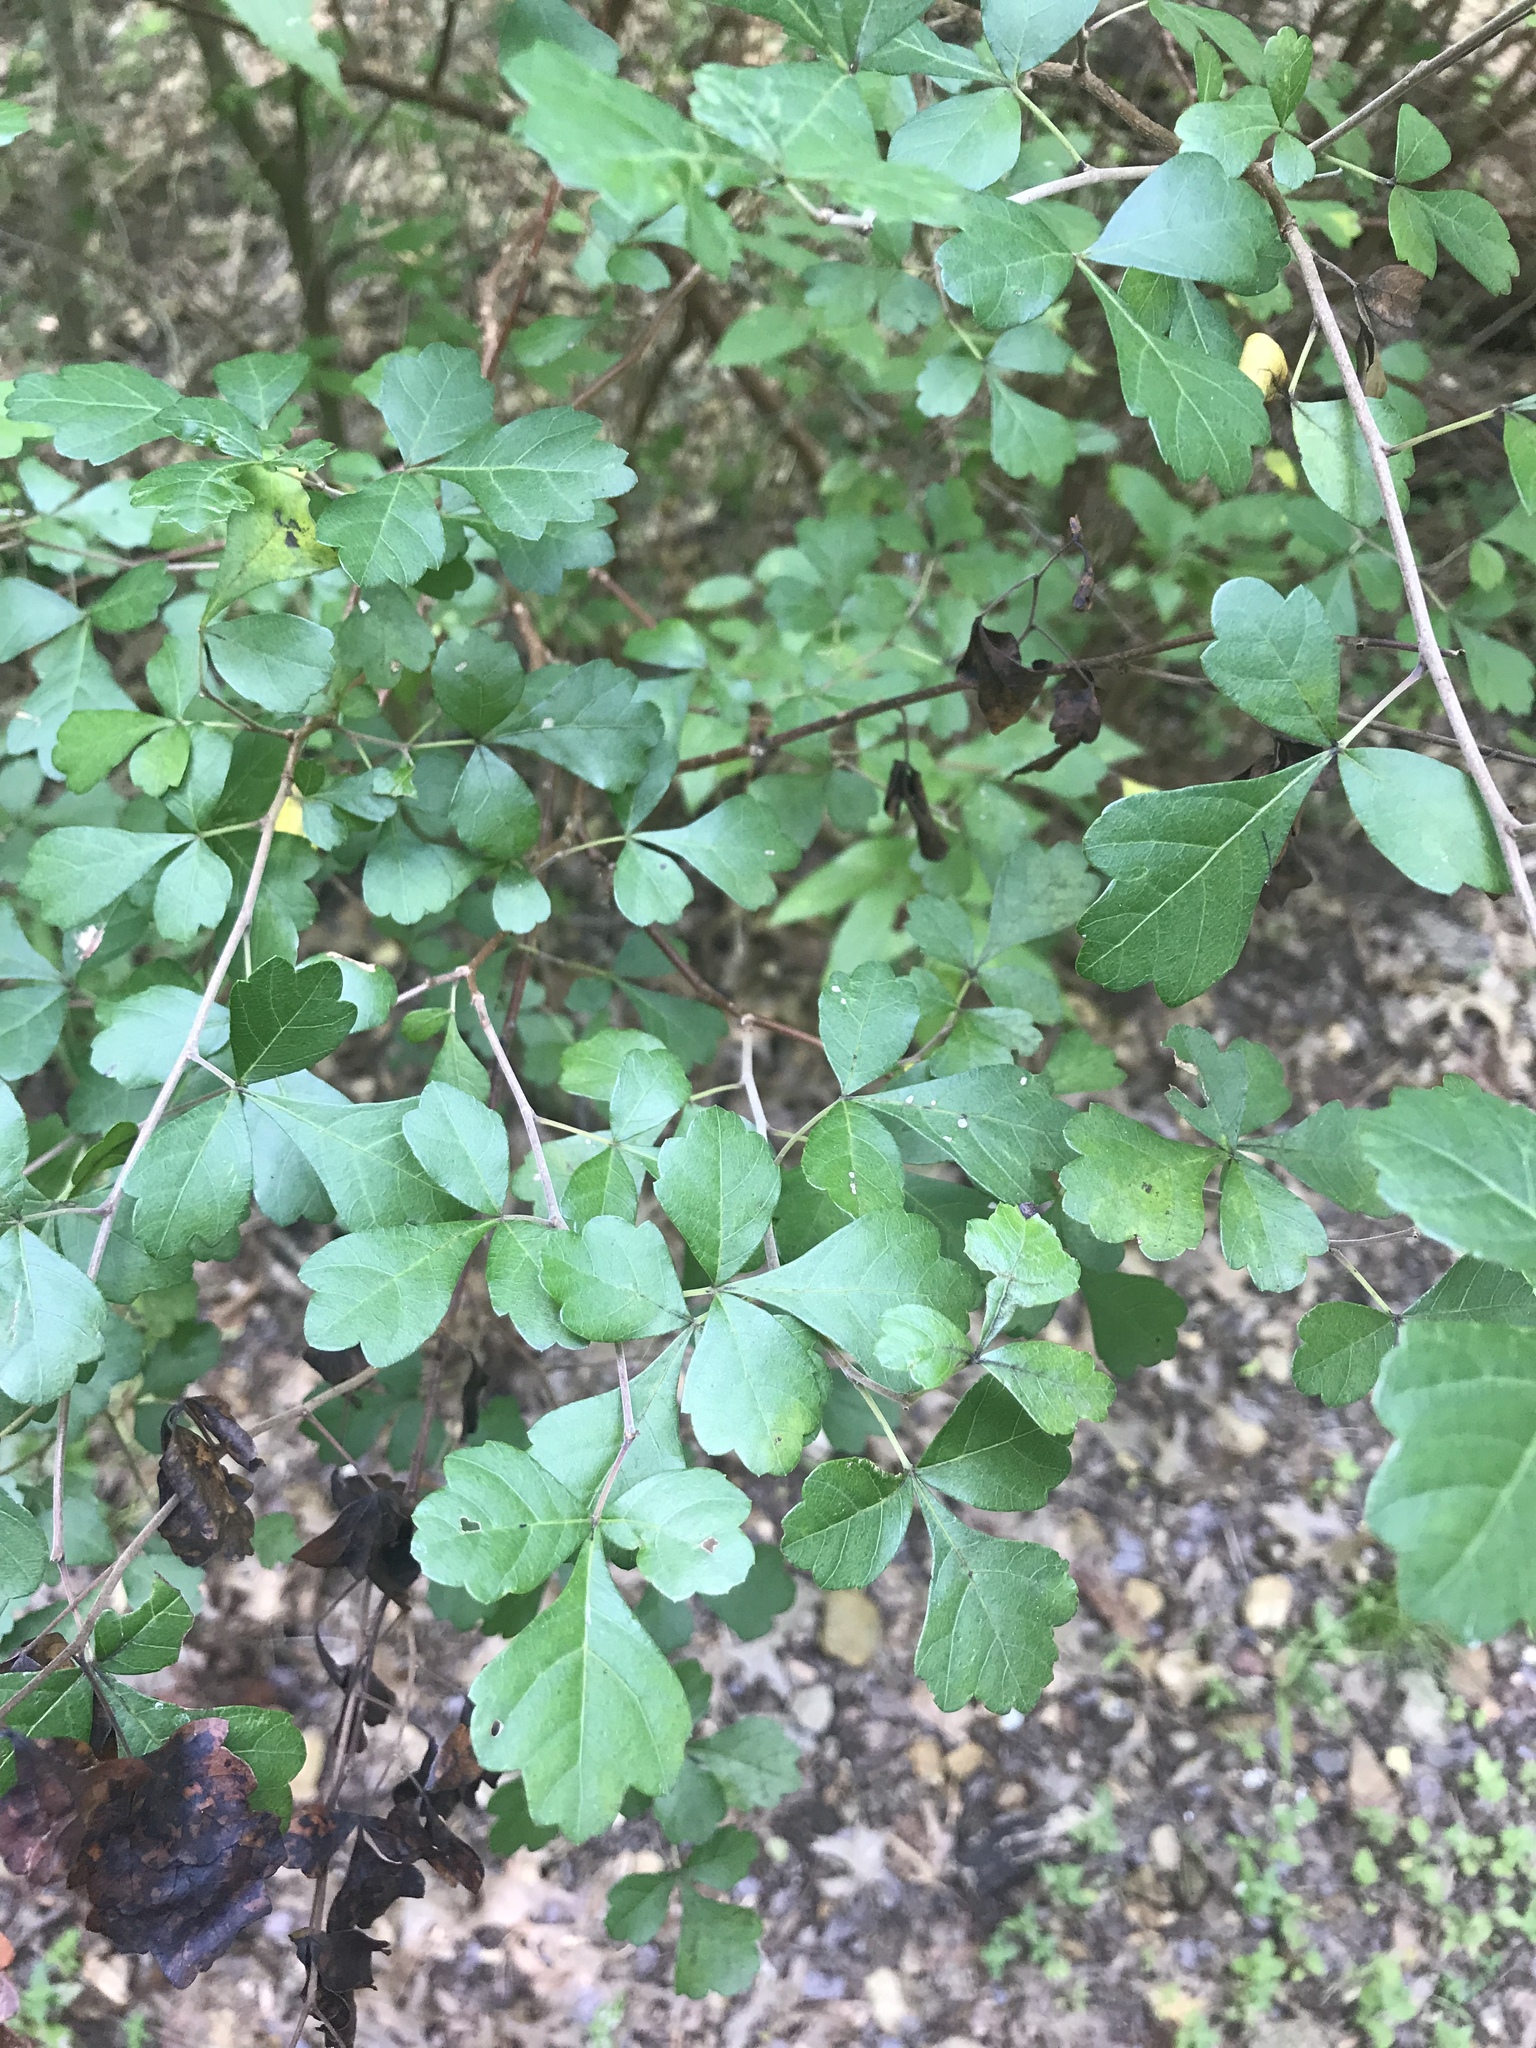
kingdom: Plantae
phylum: Tracheophyta
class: Magnoliopsida
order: Sapindales
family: Anacardiaceae
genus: Rhus
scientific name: Rhus aromatica
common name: Aromatic sumac
